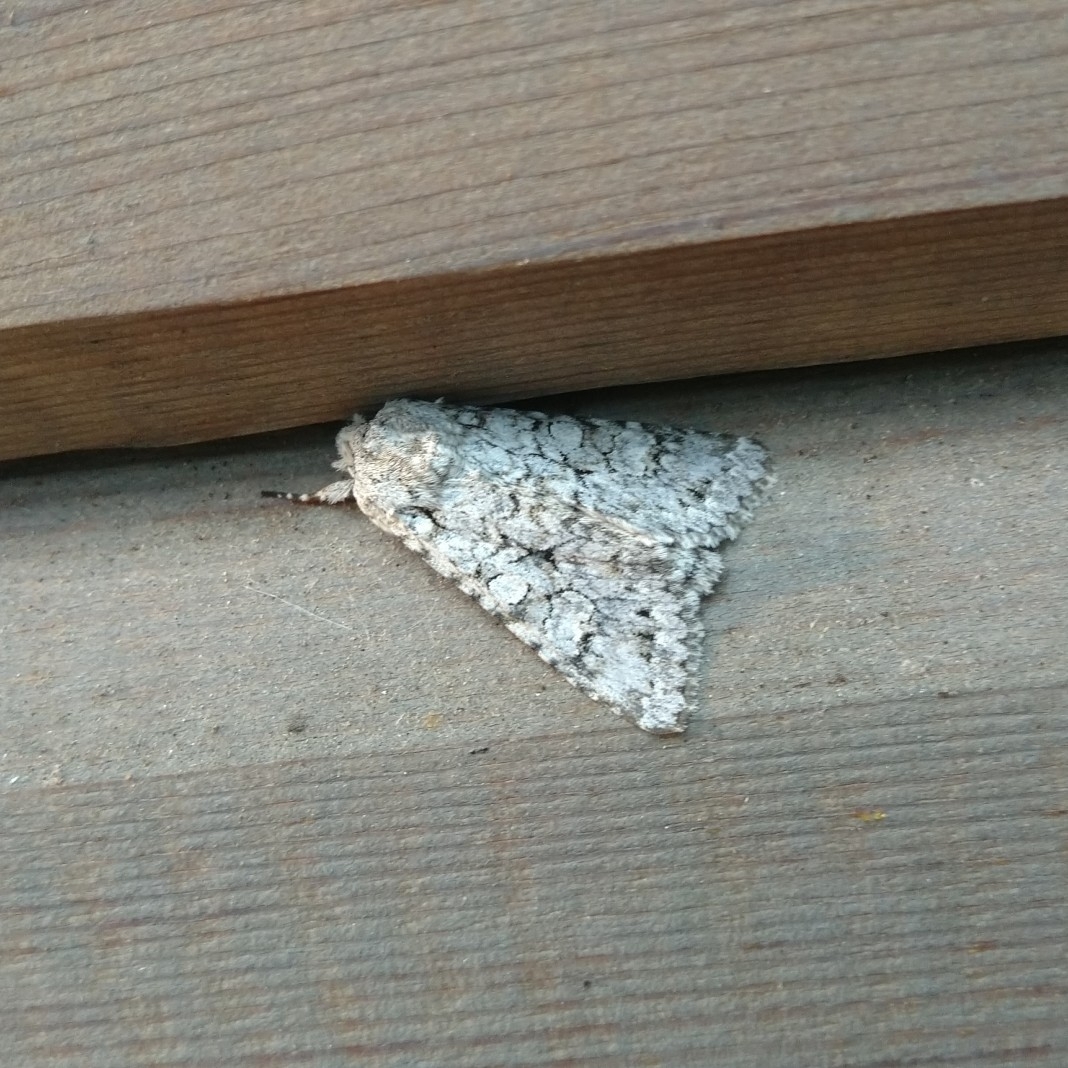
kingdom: Animalia
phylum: Arthropoda
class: Insecta
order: Lepidoptera
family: Noctuidae
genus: Antitype
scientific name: Antitype chi
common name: Grey chi
